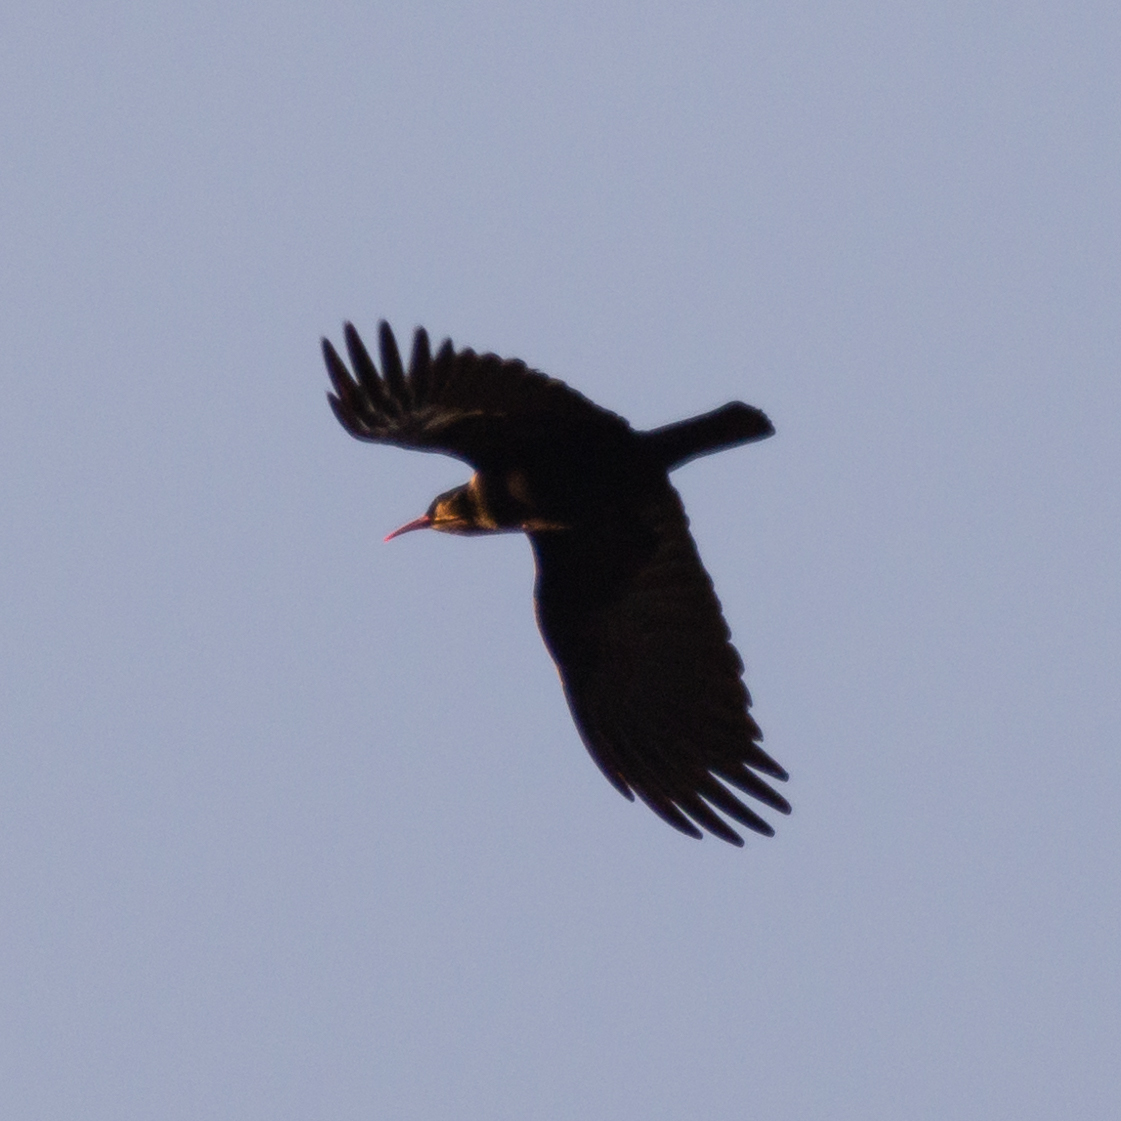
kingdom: Animalia
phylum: Chordata
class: Aves
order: Passeriformes
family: Corvidae
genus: Pyrrhocorax
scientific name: Pyrrhocorax pyrrhocorax
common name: Red-billed chough
